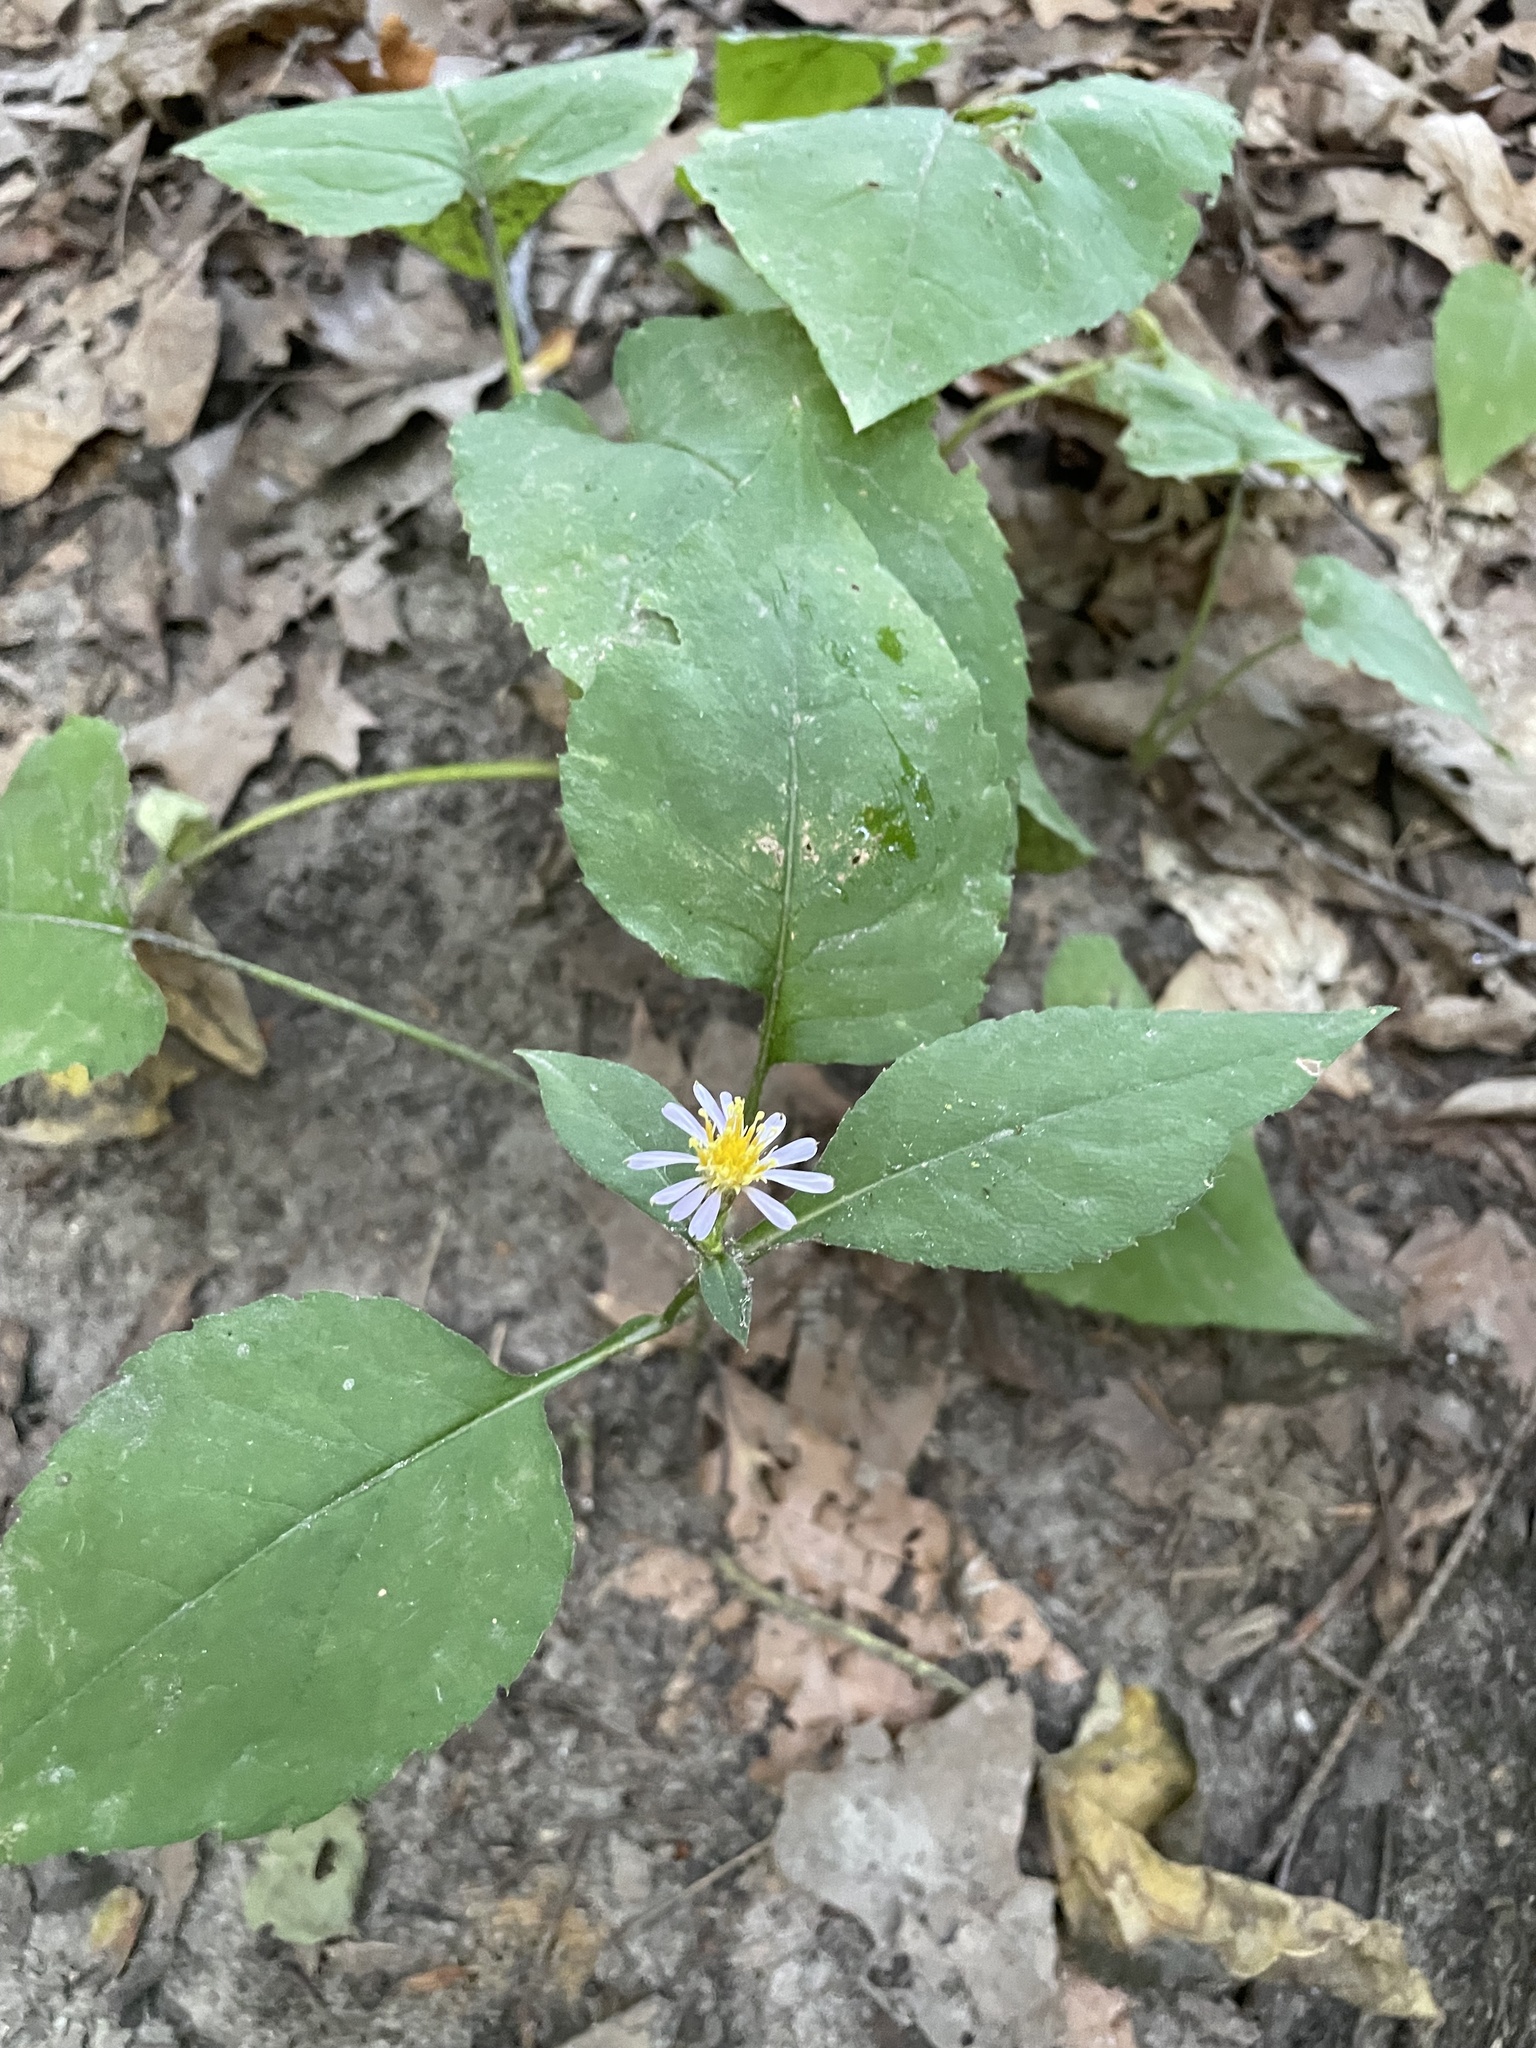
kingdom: Plantae
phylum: Tracheophyta
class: Magnoliopsida
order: Asterales
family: Asteraceae
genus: Eurybia
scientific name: Eurybia macrophylla
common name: Big-leaved aster
